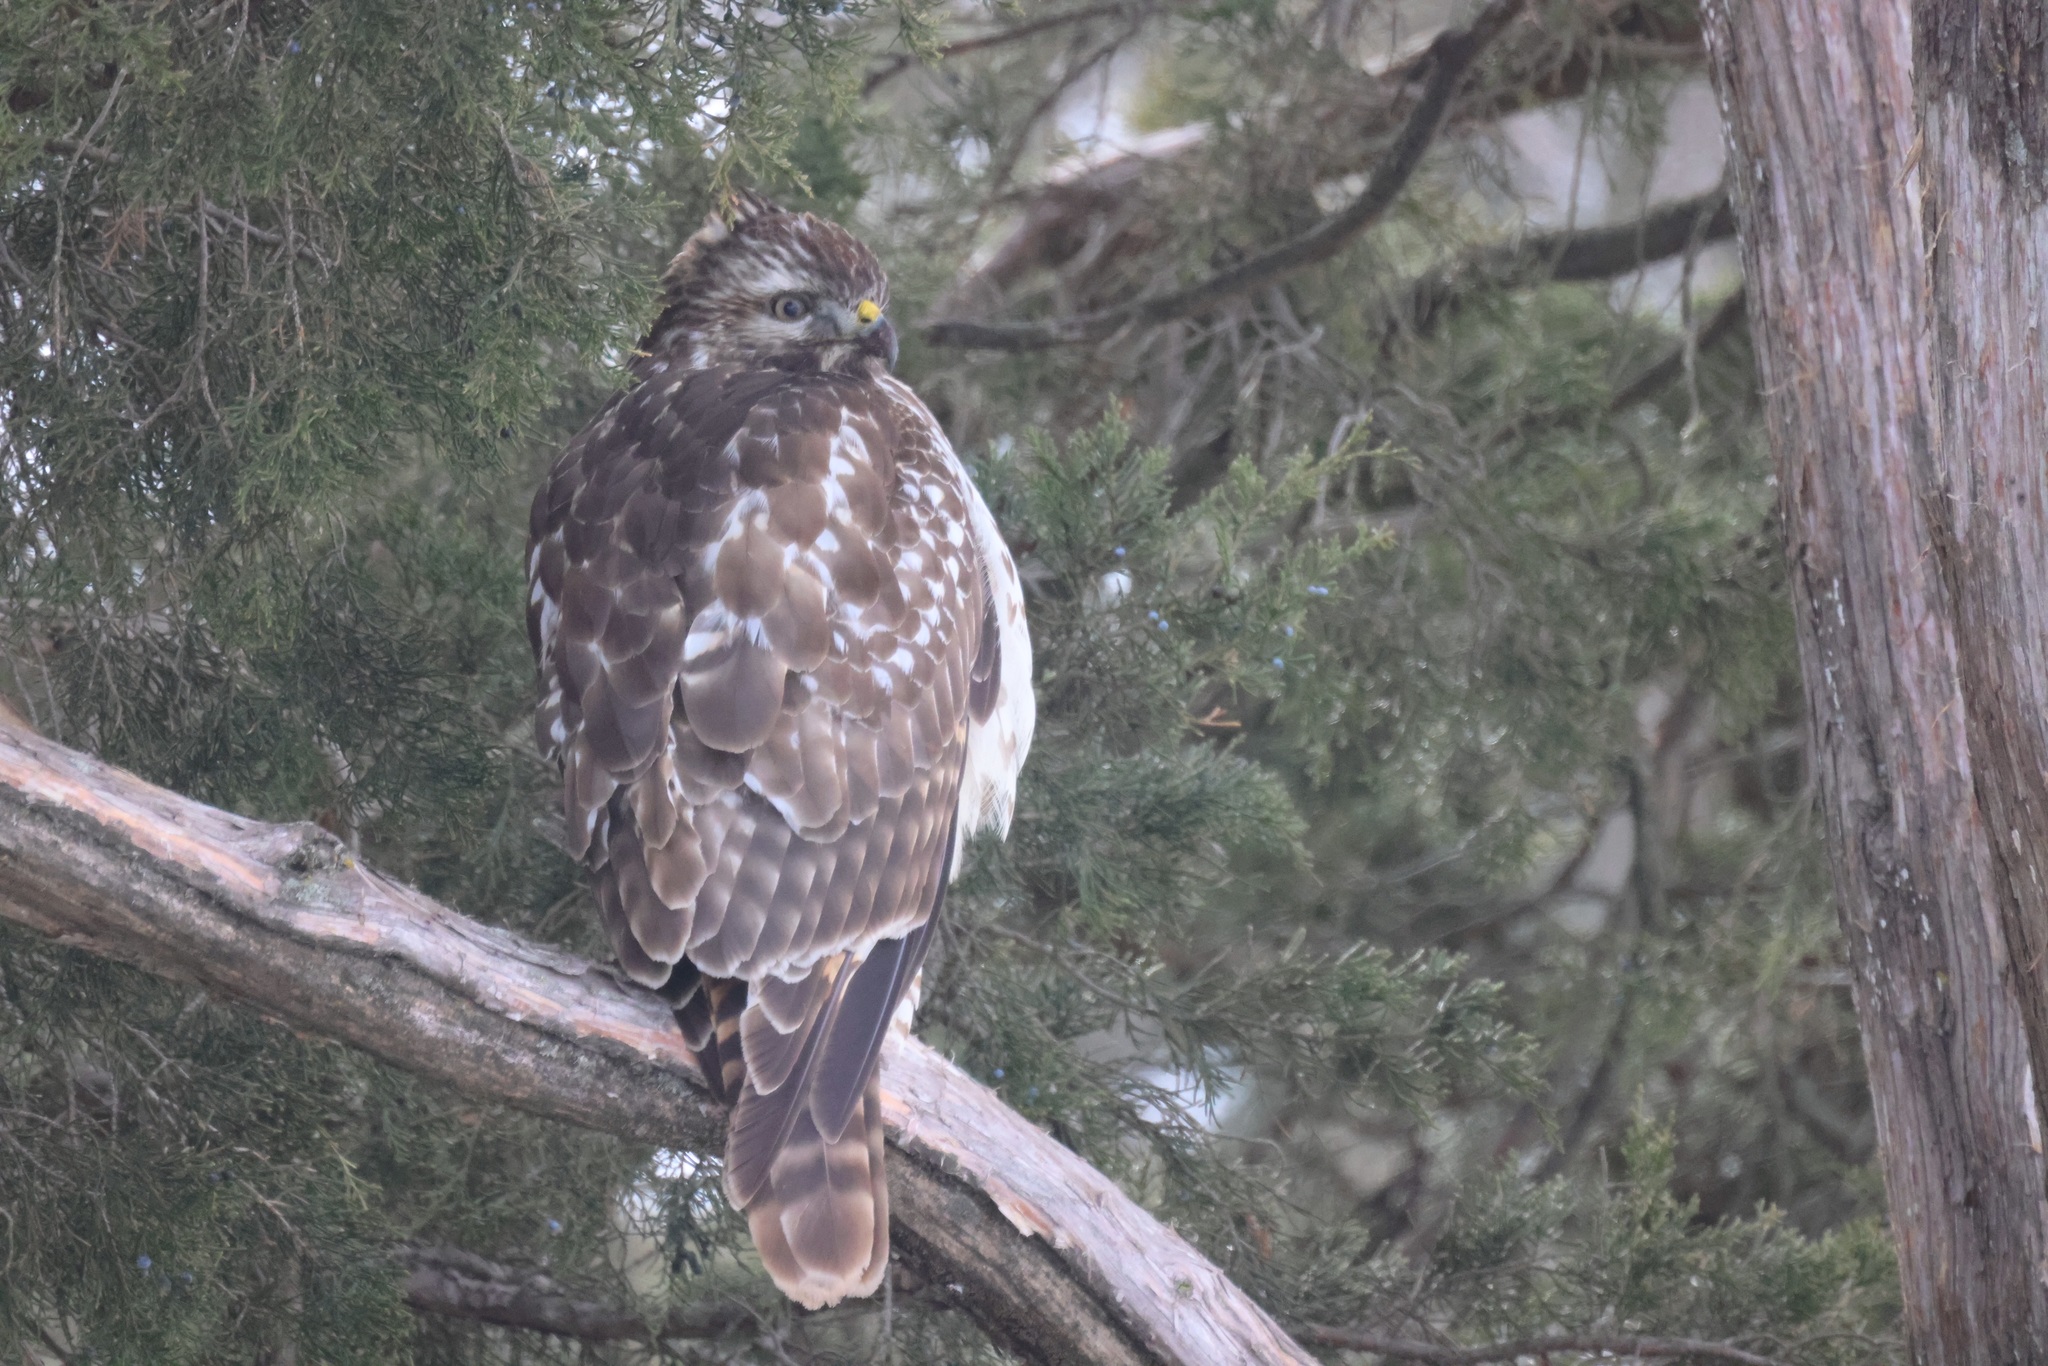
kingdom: Animalia
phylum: Chordata
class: Aves
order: Accipitriformes
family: Accipitridae
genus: Buteo
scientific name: Buteo lineatus
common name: Red-shouldered hawk
